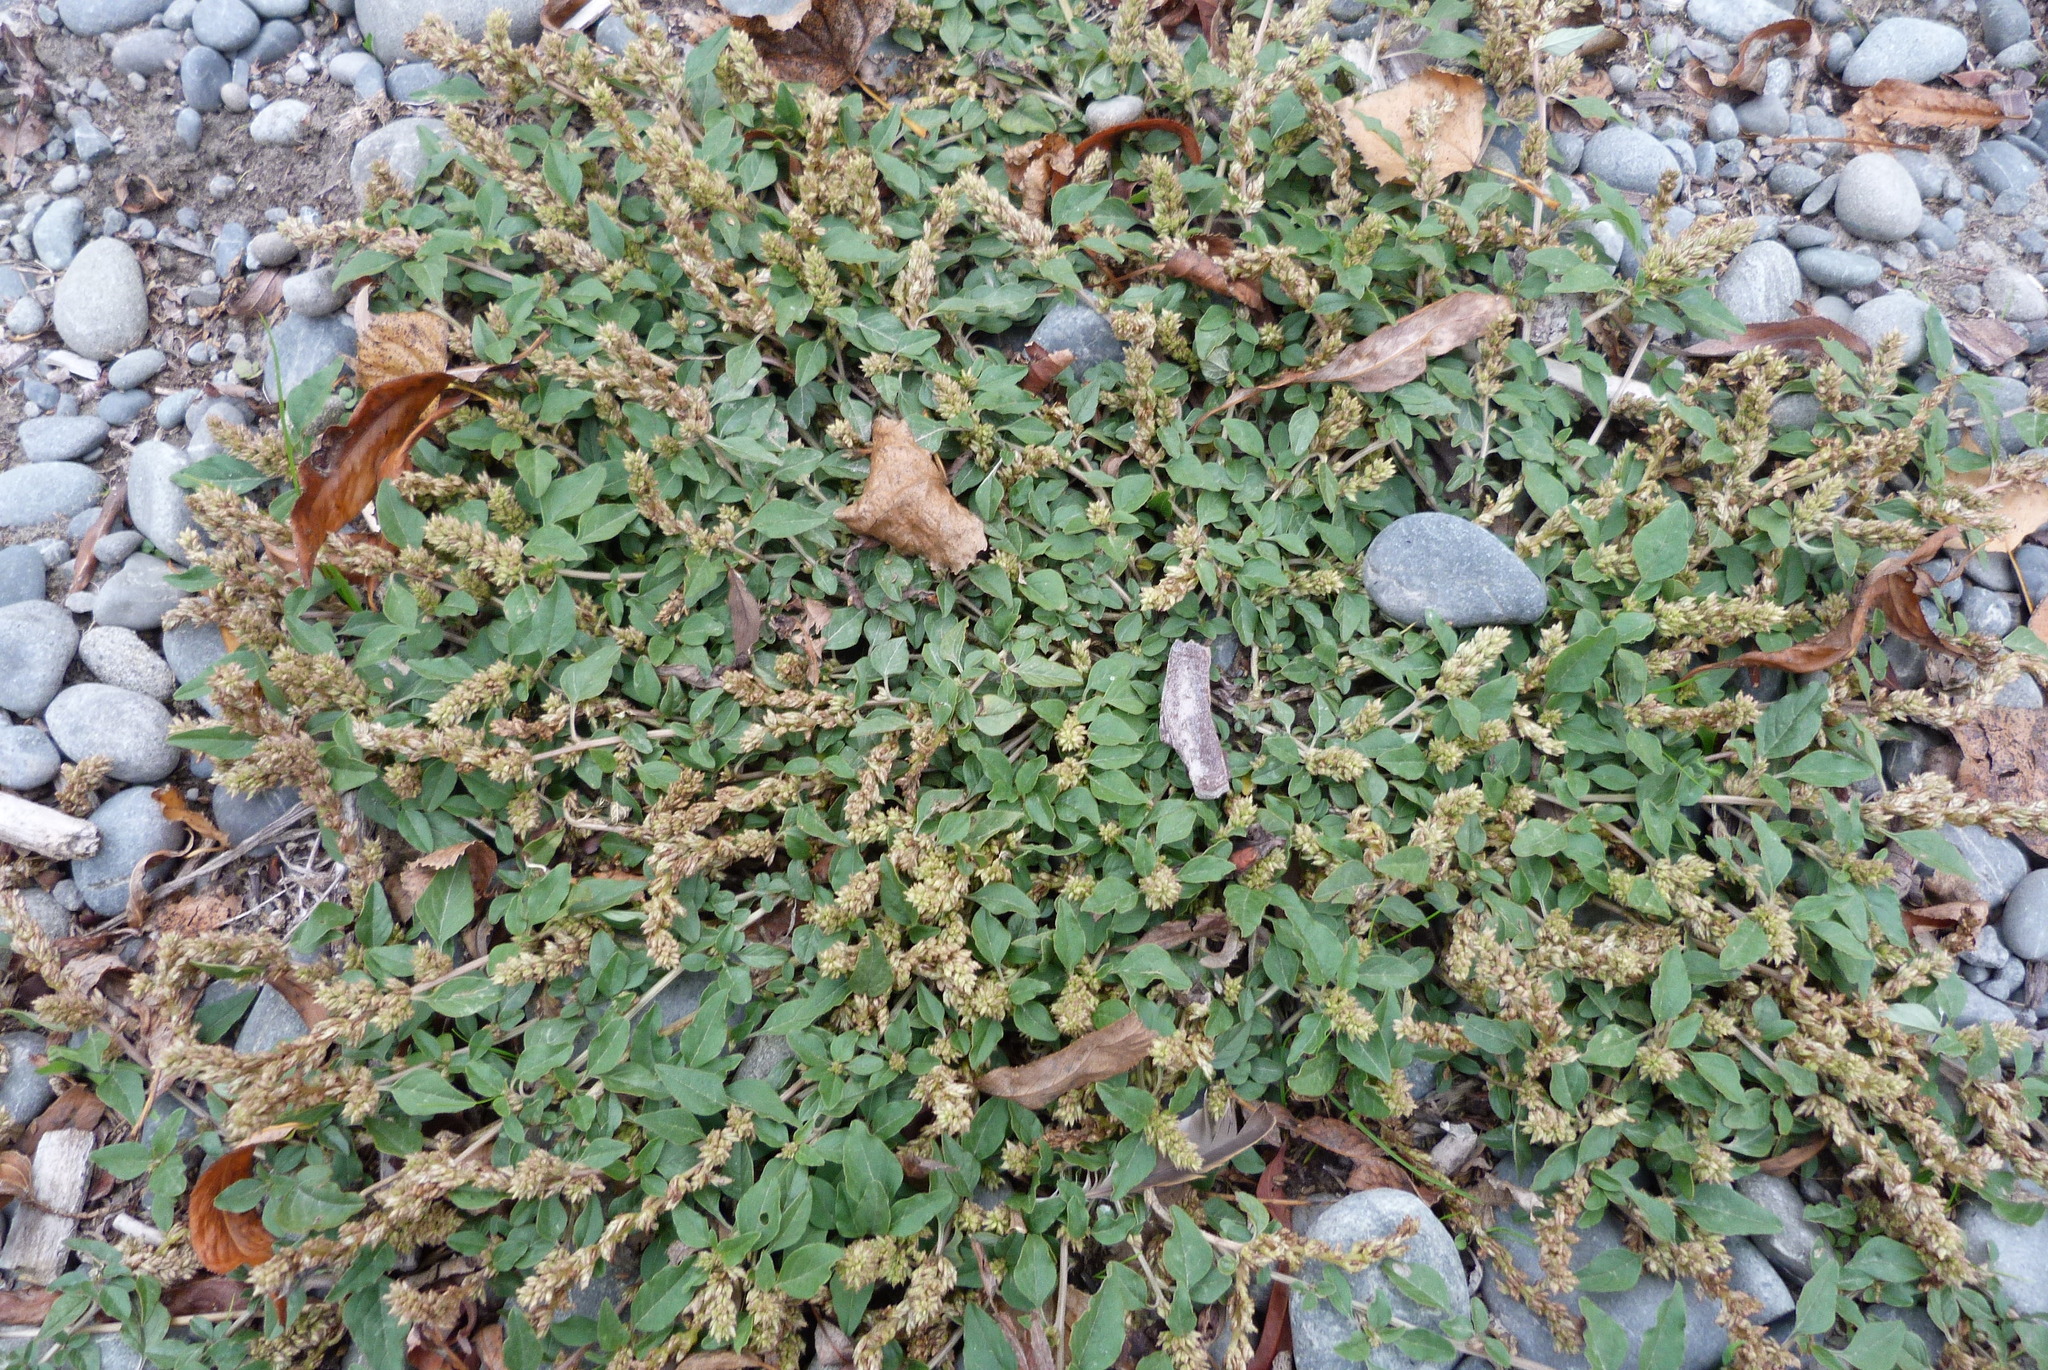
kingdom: Plantae
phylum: Tracheophyta
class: Magnoliopsida
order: Caryophyllales
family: Amaranthaceae
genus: Amaranthus
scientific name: Amaranthus deflexus
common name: Perennial pigweed
